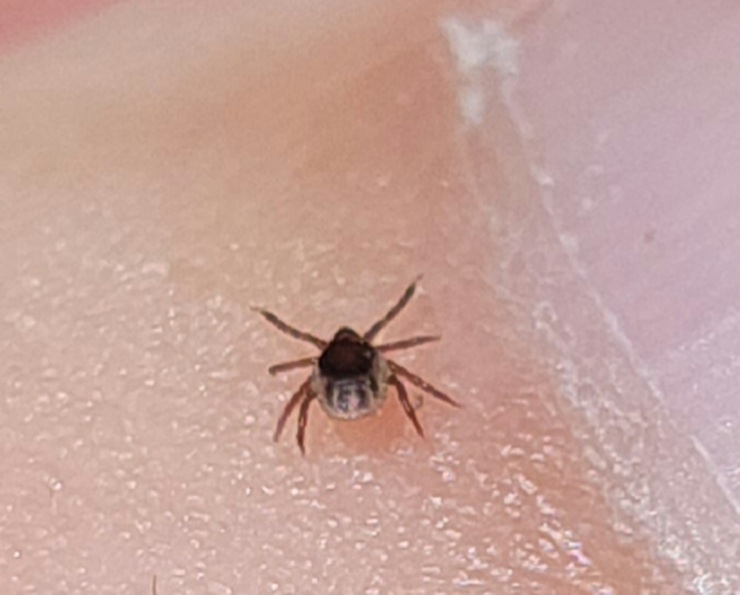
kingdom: Animalia
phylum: Arthropoda
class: Arachnida
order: Ixodida
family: Ixodidae
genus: Ixodes
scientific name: Ixodes scapularis
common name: Black legged tick
